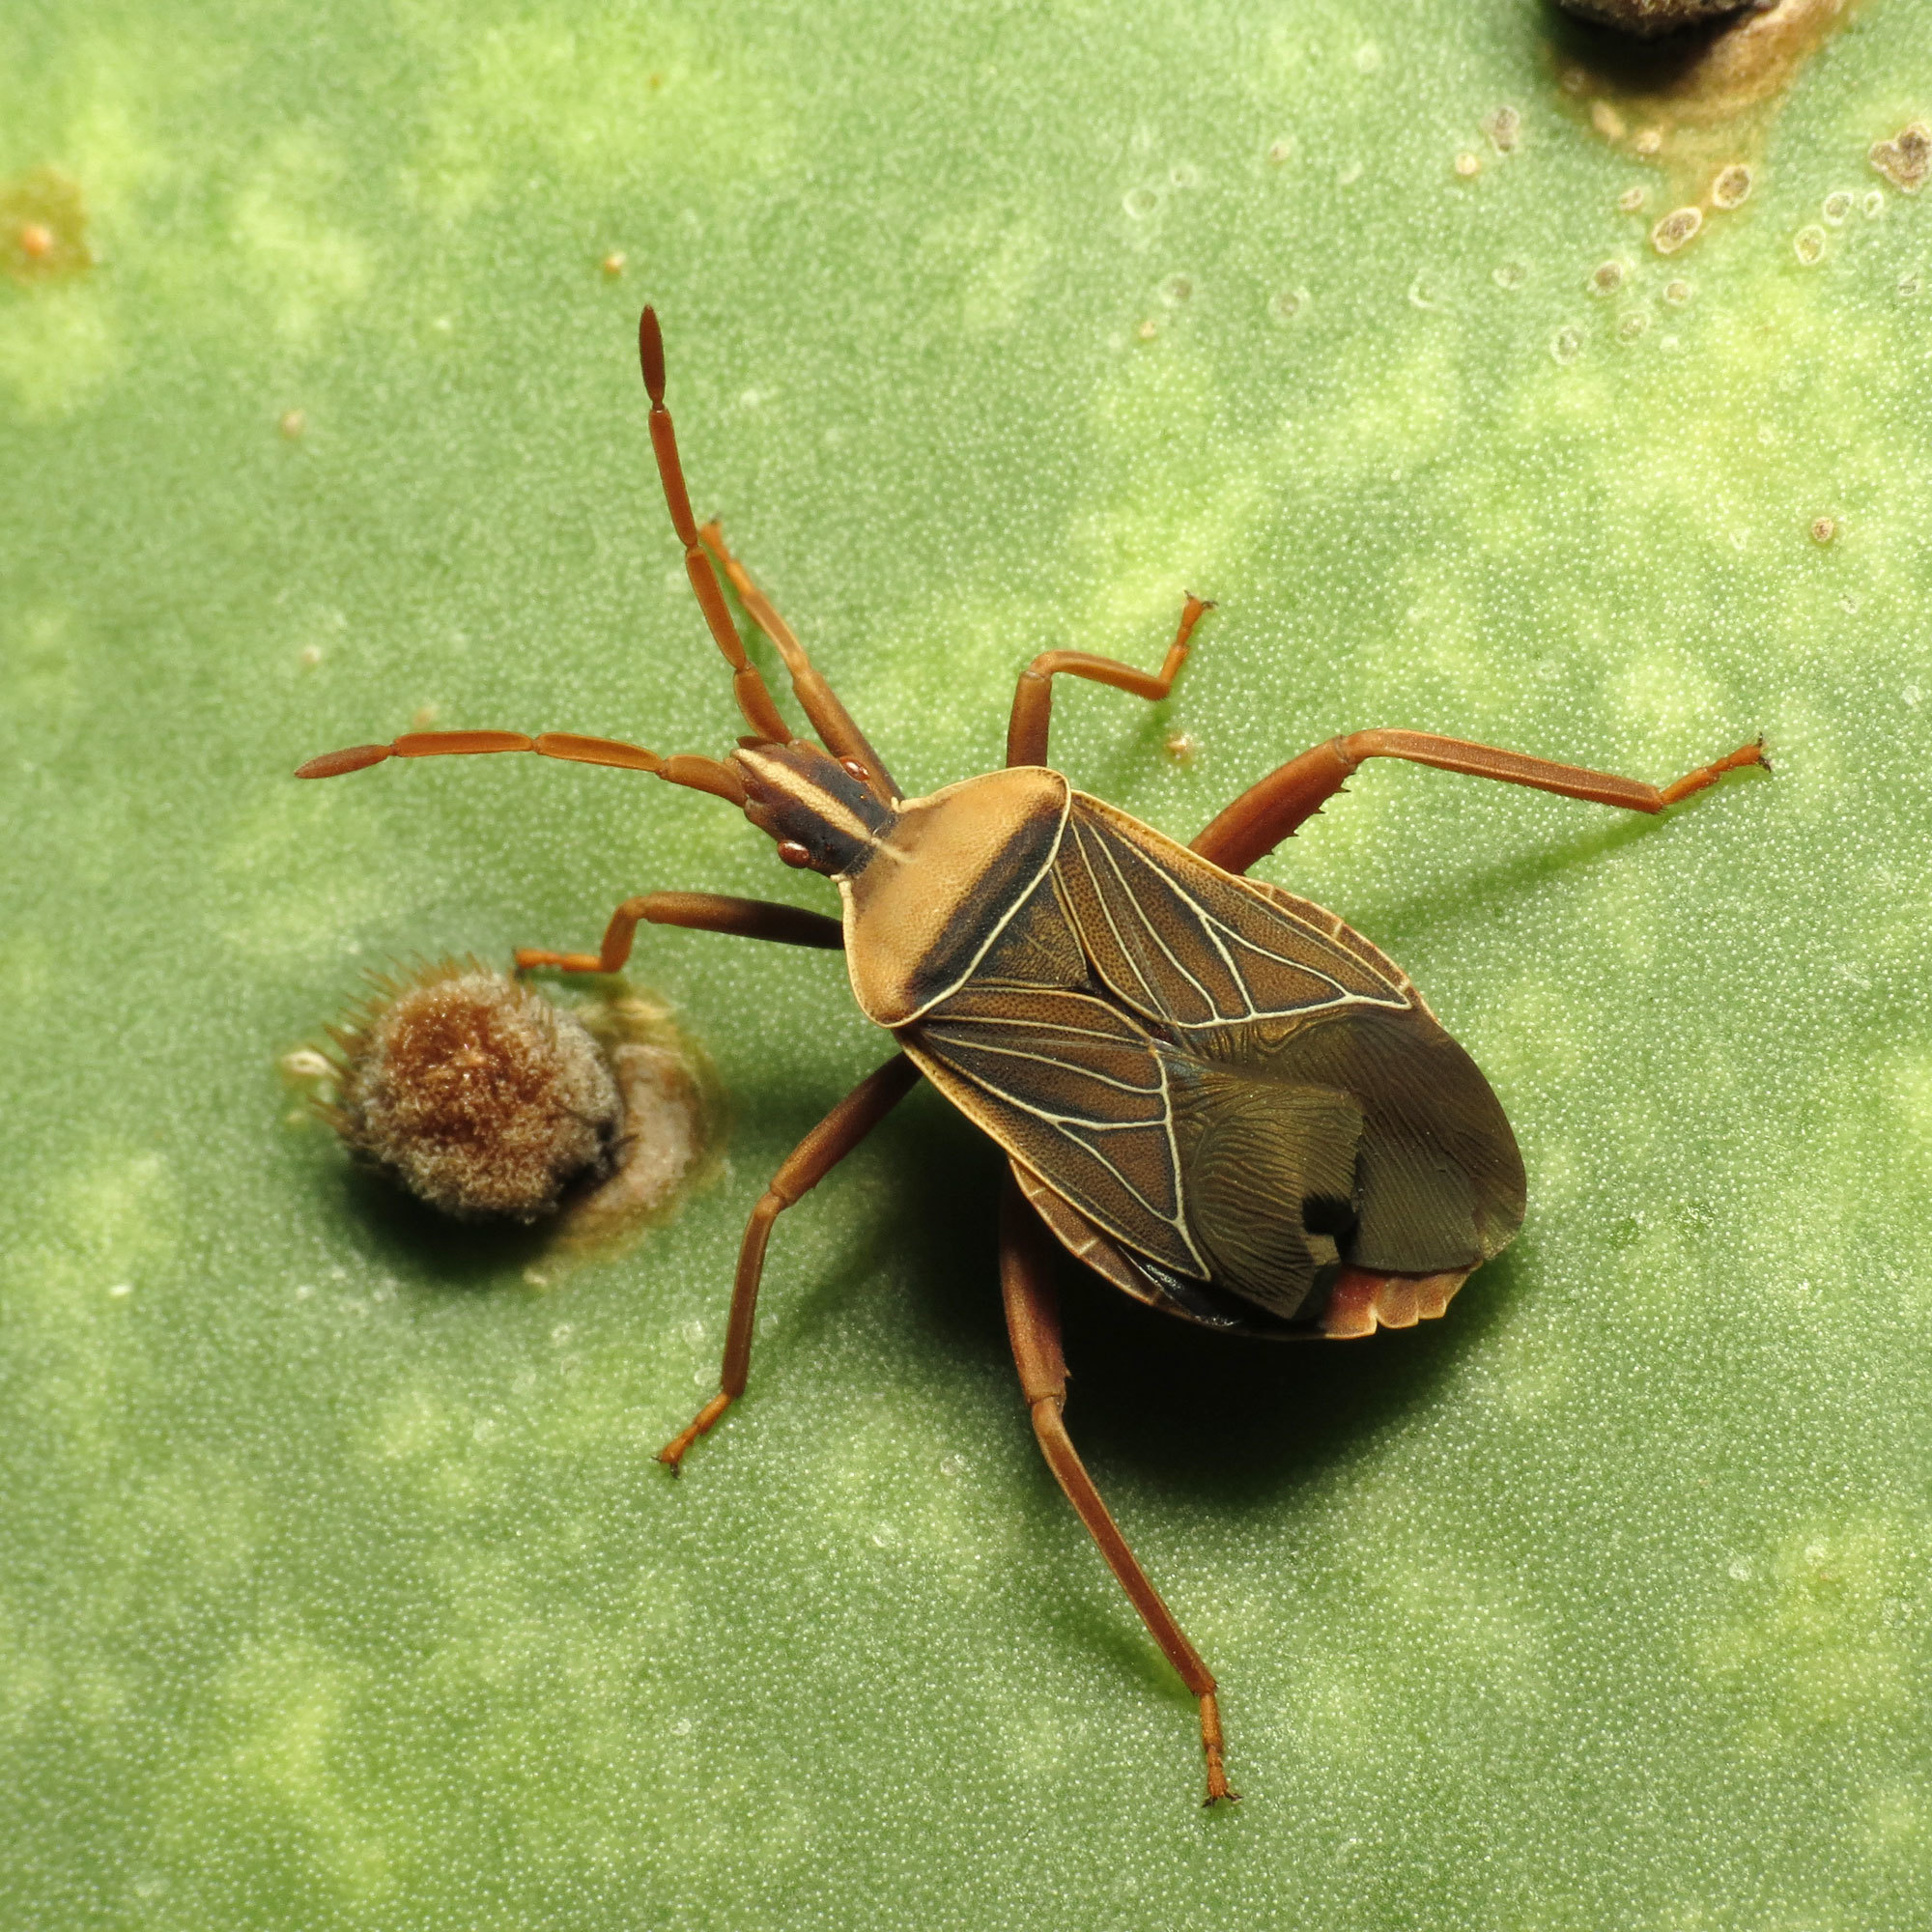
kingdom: Animalia
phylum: Arthropoda
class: Insecta
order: Hemiptera
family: Coreidae
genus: Chelinidea
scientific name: Chelinidea vittiger
